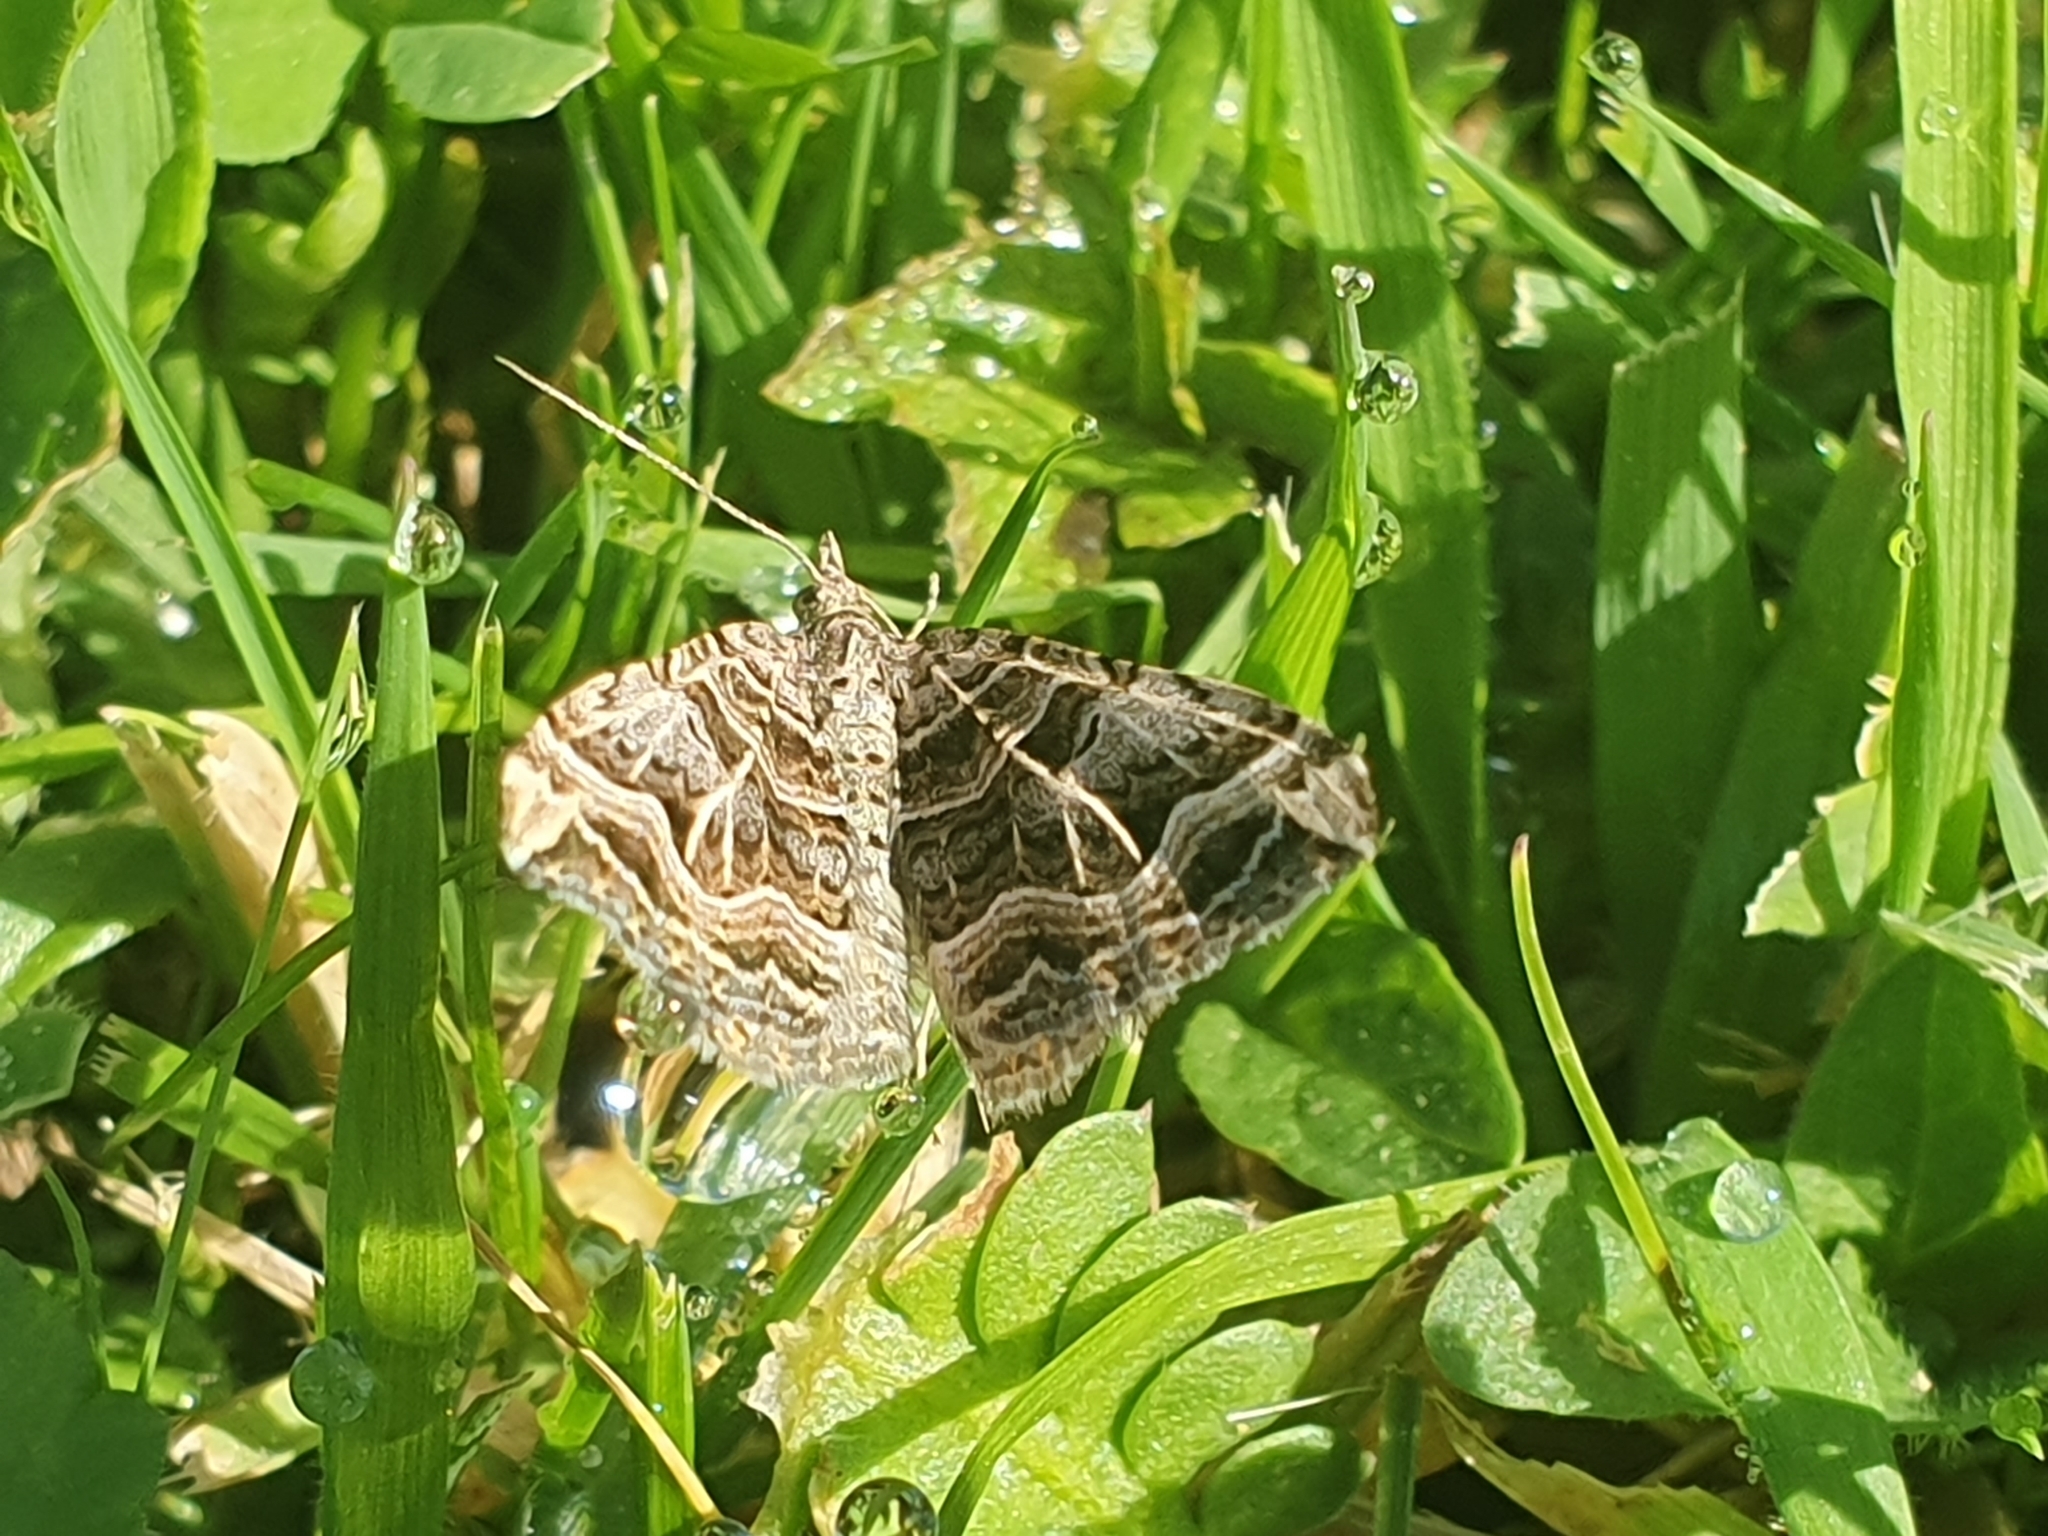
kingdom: Animalia
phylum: Arthropoda
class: Insecta
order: Lepidoptera
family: Geometridae
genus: Xanthorhoe
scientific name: Xanthorhoe semifissata
